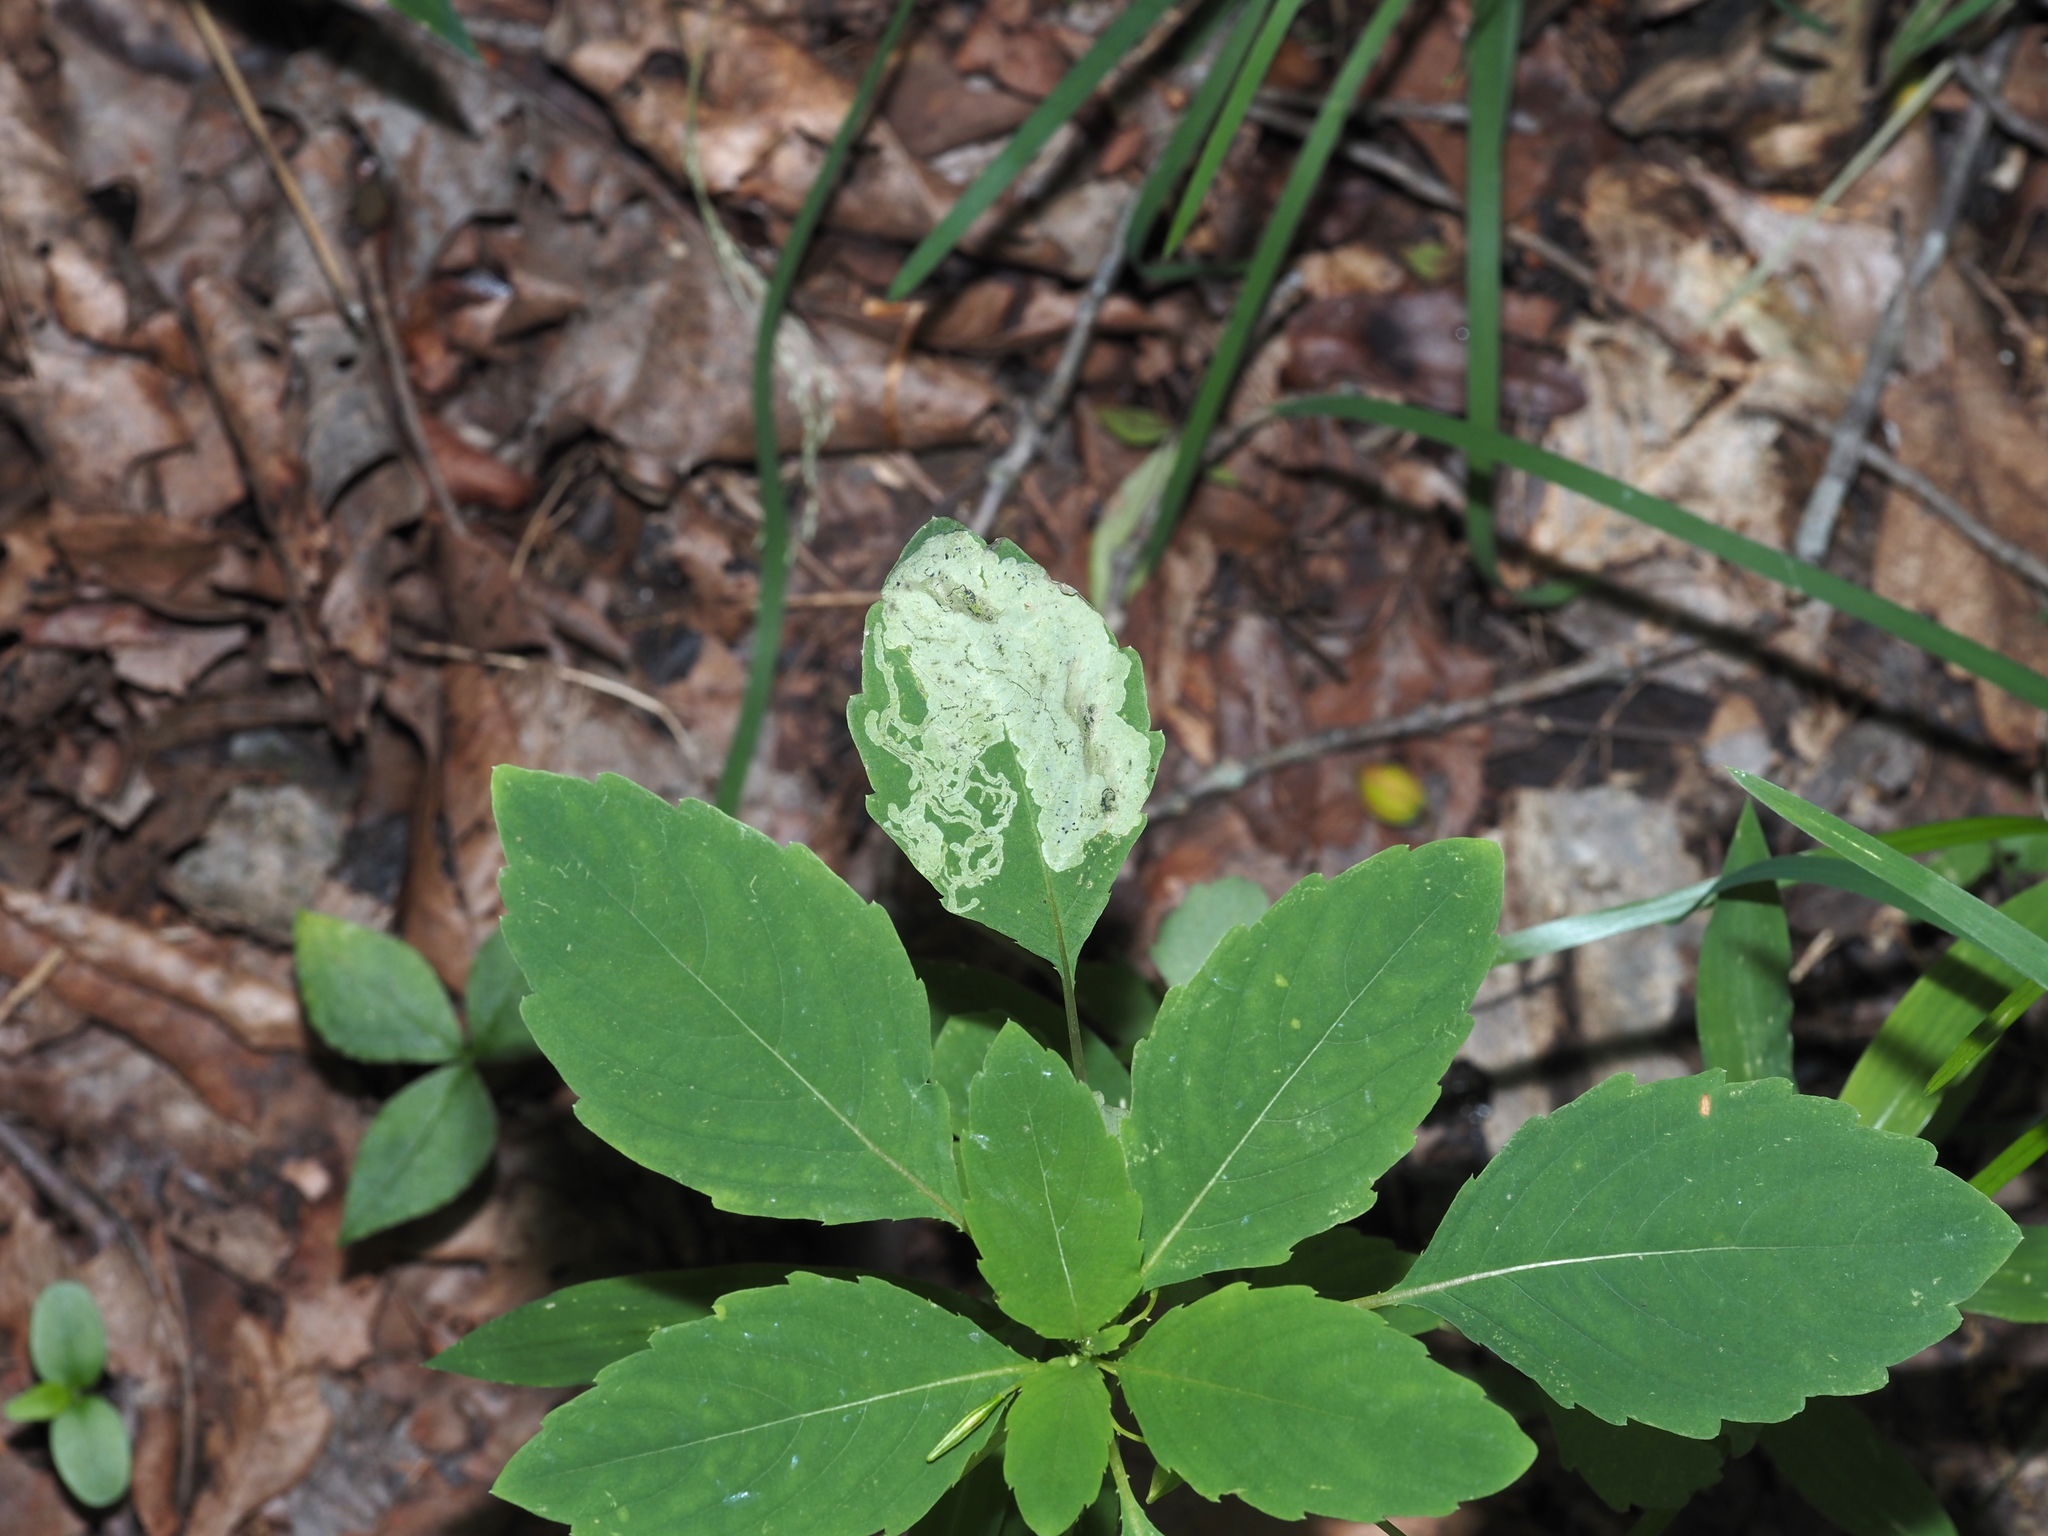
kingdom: Animalia
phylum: Arthropoda
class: Insecta
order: Diptera
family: Agromyzidae
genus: Phytoliriomyza
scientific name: Phytoliriomyza melampyga
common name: Jewelweed leaf-miner fly
